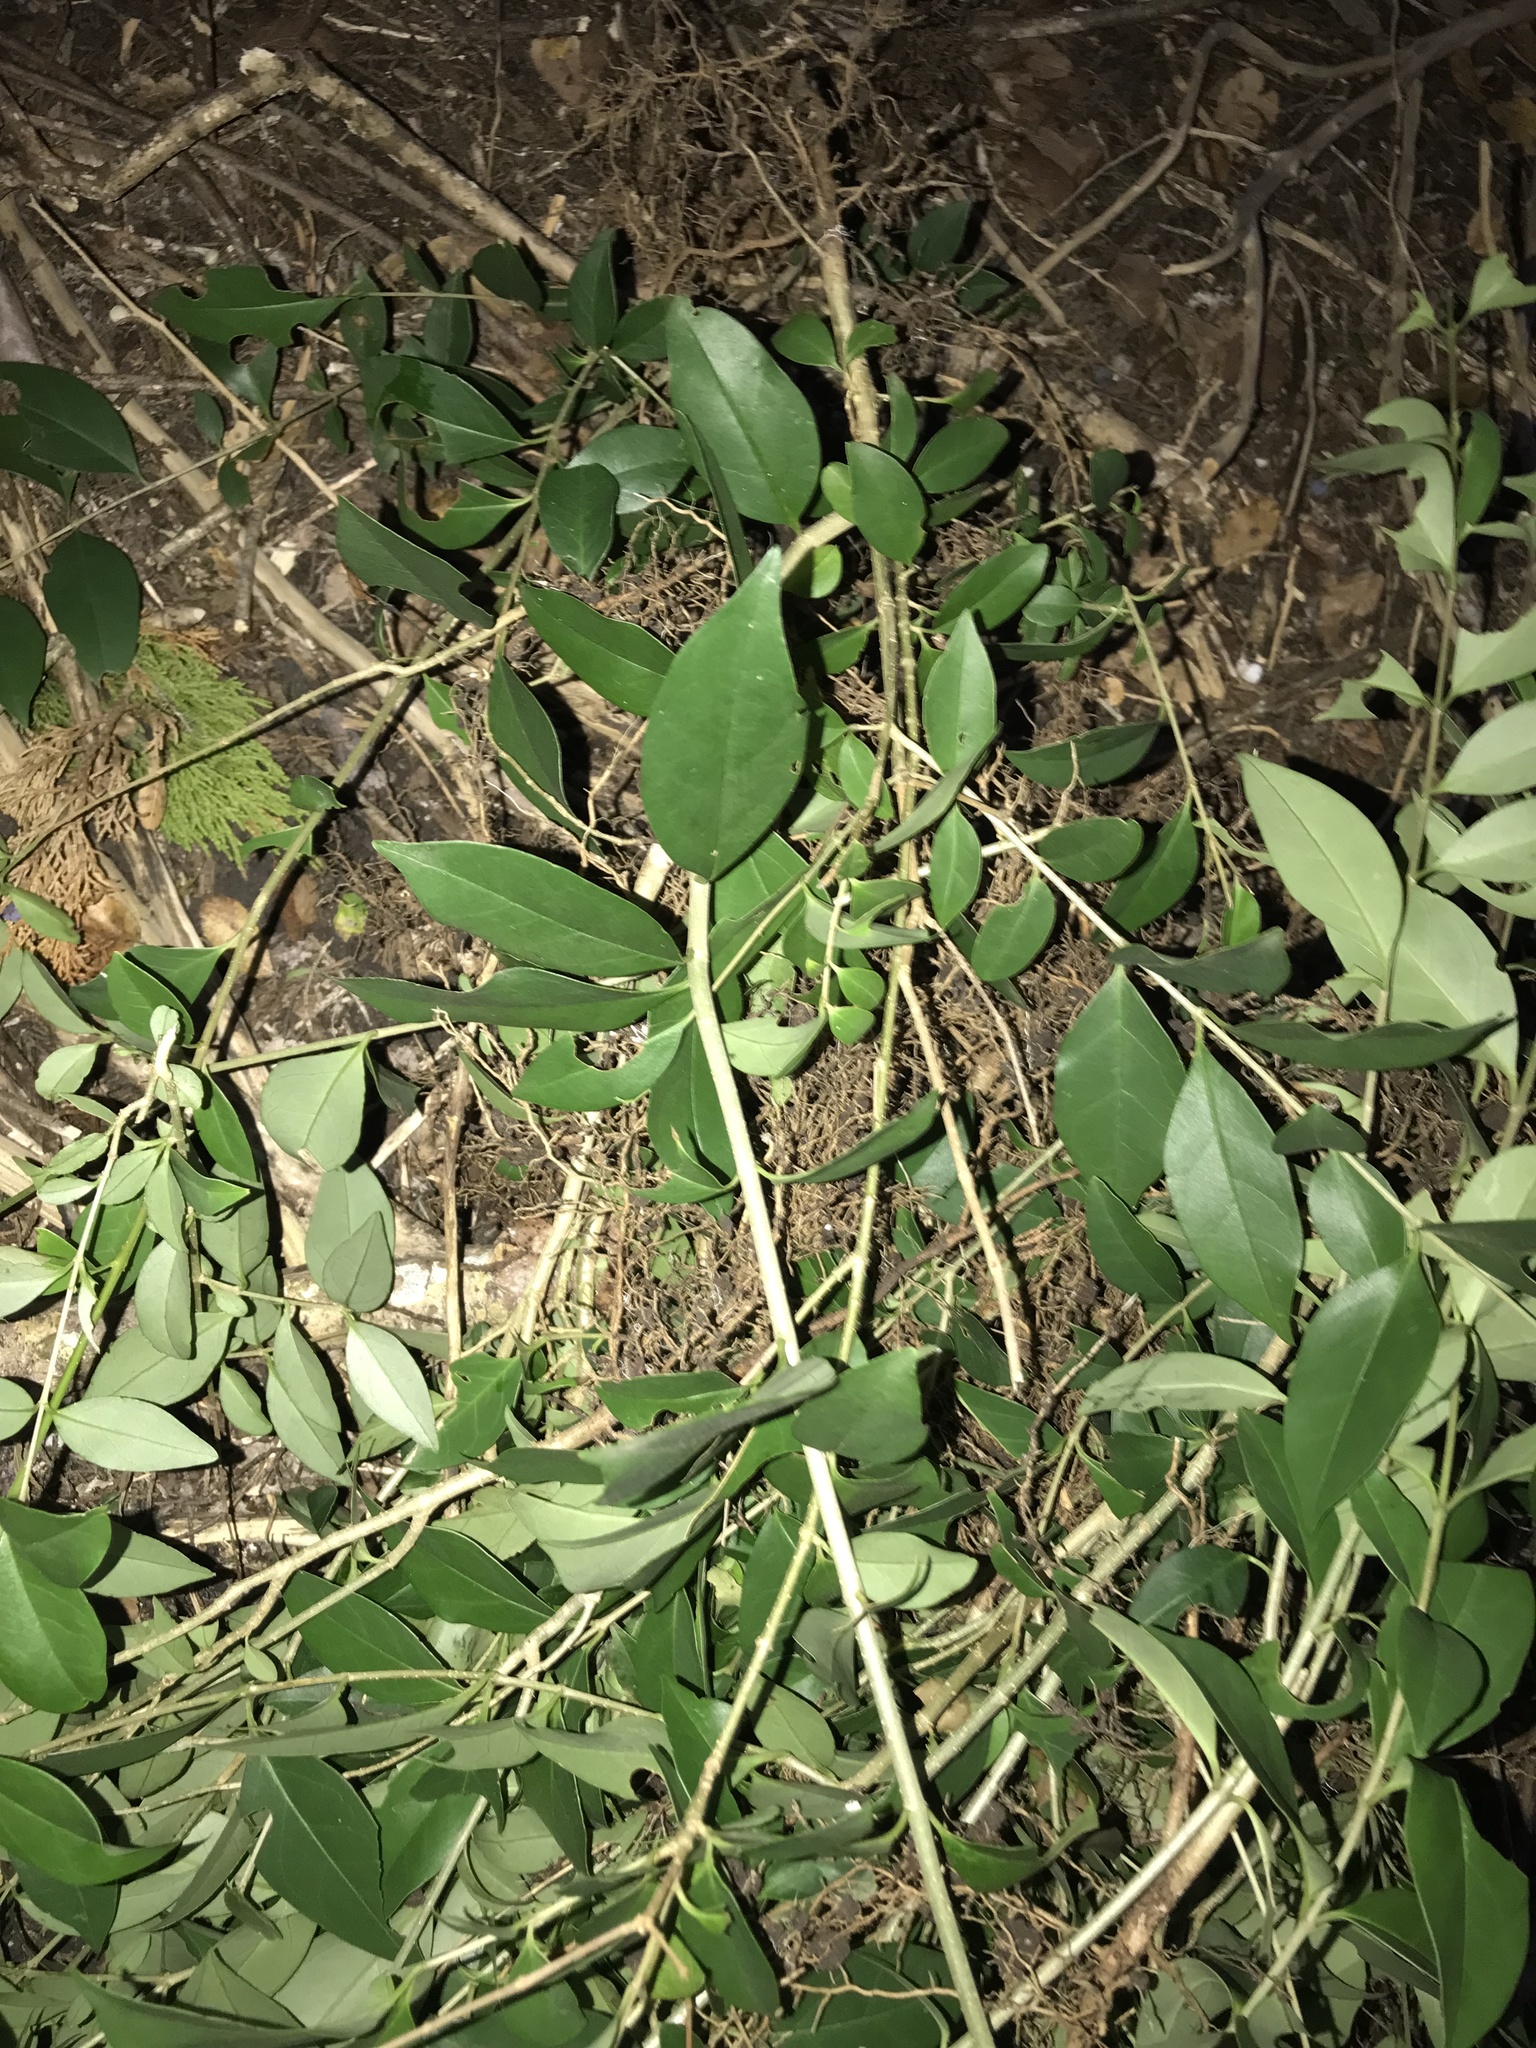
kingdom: Plantae
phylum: Tracheophyta
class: Magnoliopsida
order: Lamiales
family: Oleaceae
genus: Ligustrum
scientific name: Ligustrum lucidum
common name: Glossy privet
